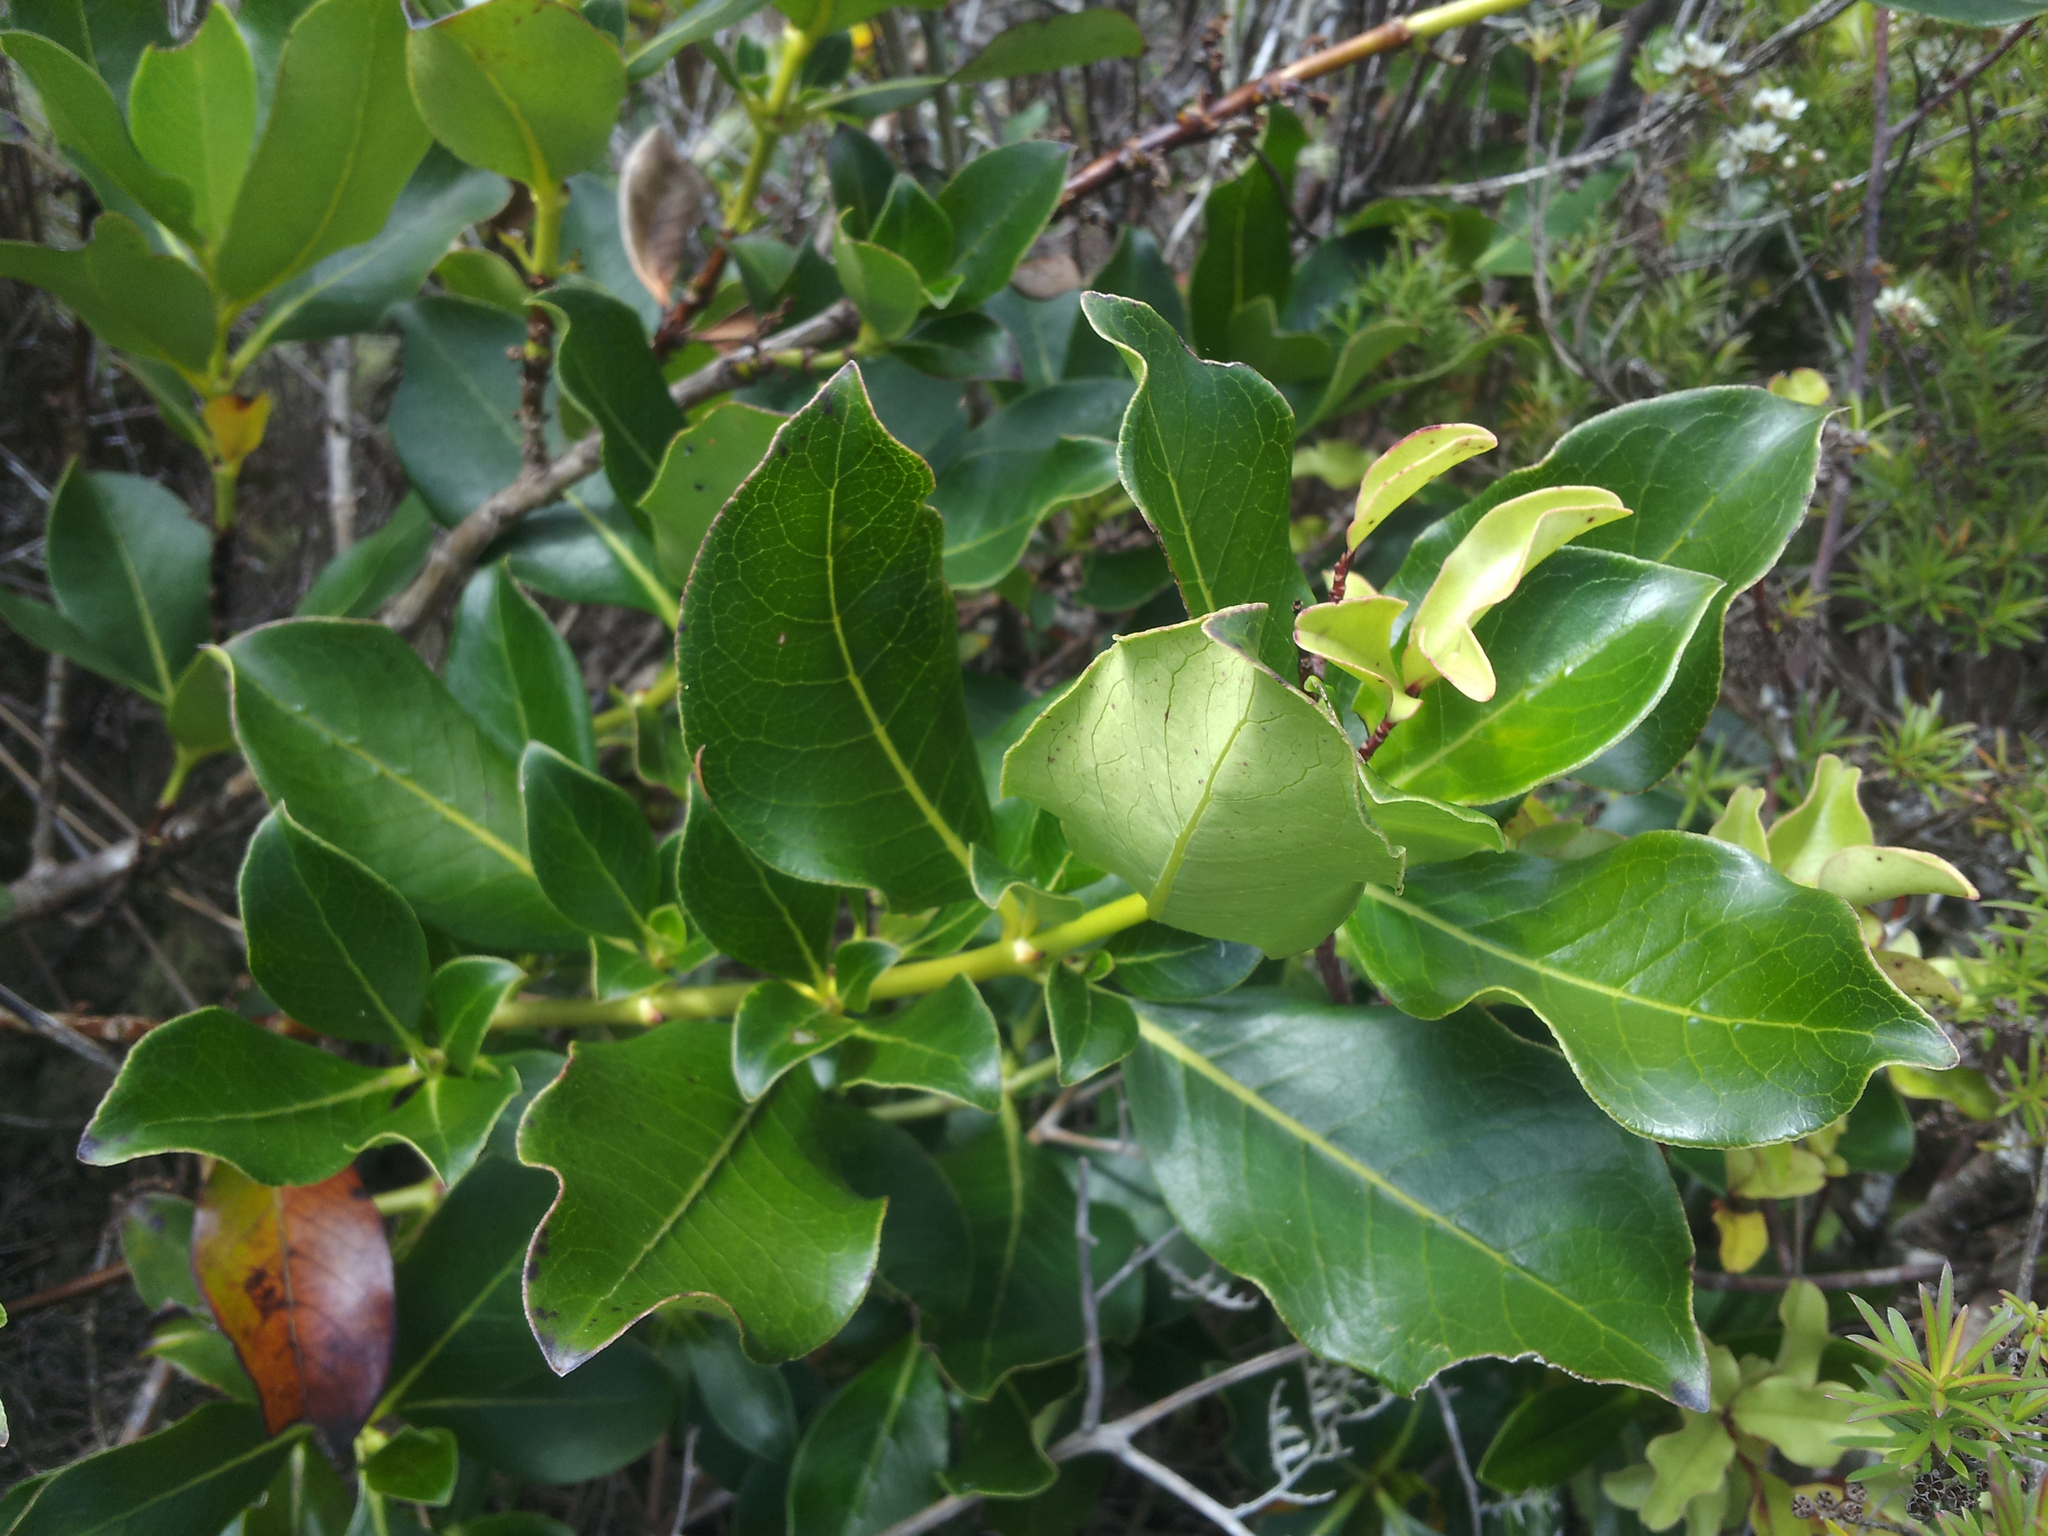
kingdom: Plantae
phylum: Tracheophyta
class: Magnoliopsida
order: Gentianales
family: Rubiaceae
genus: Coprosma
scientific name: Coprosma robusta
